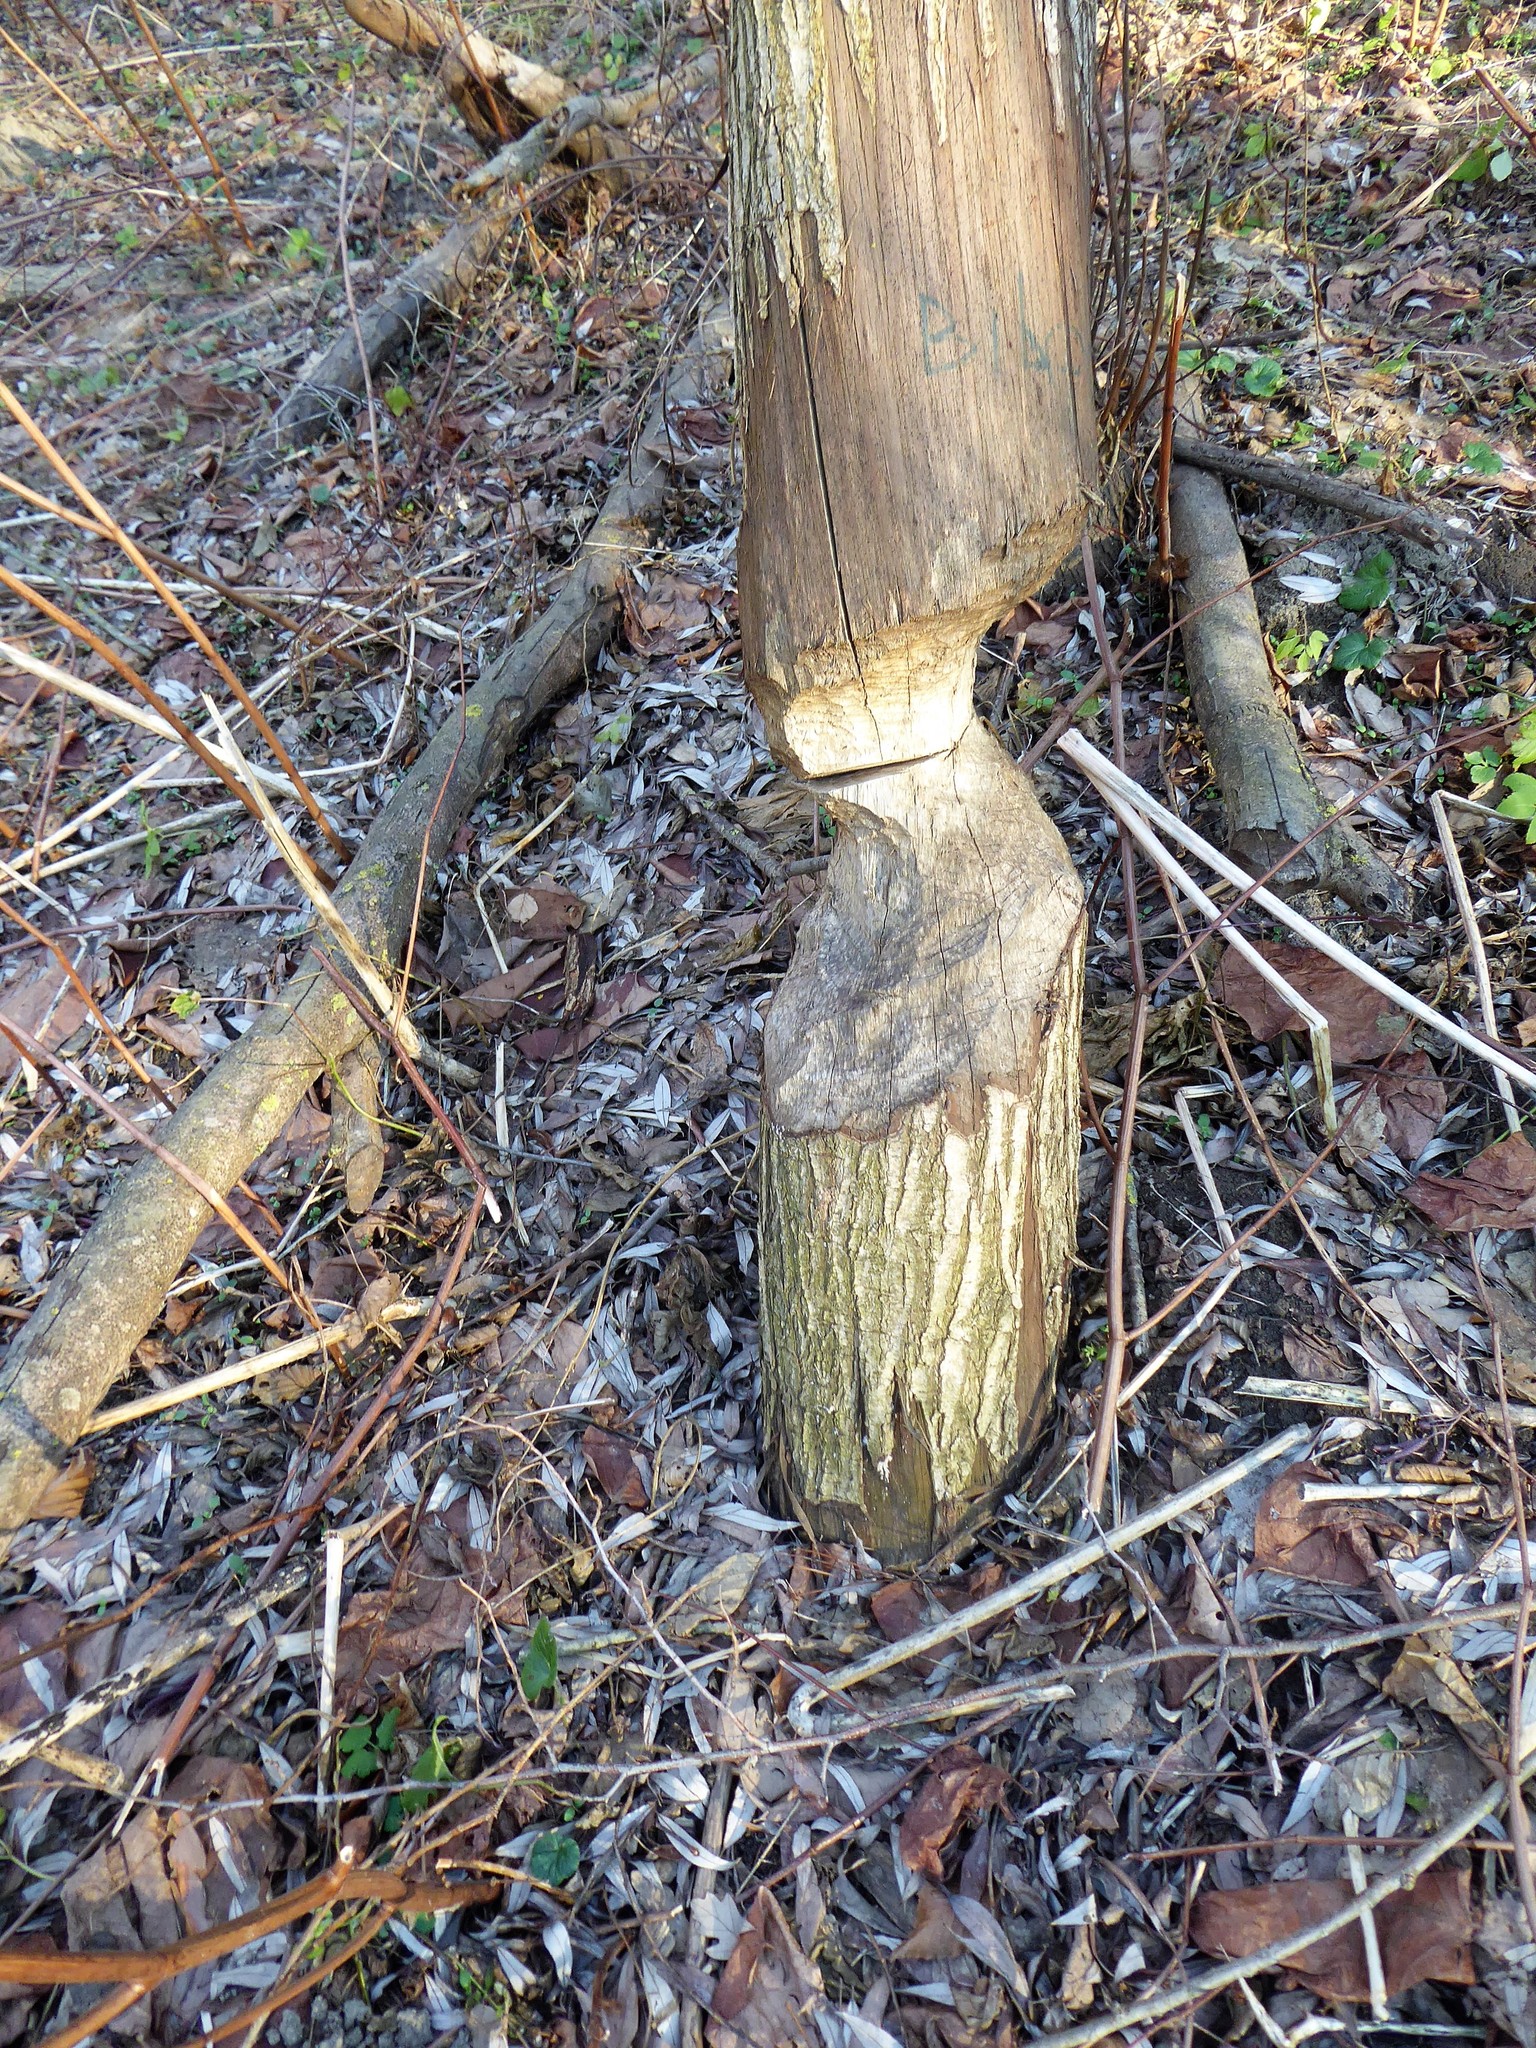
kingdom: Animalia
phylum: Chordata
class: Mammalia
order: Rodentia
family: Castoridae
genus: Castor
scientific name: Castor fiber
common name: Eurasian beaver
